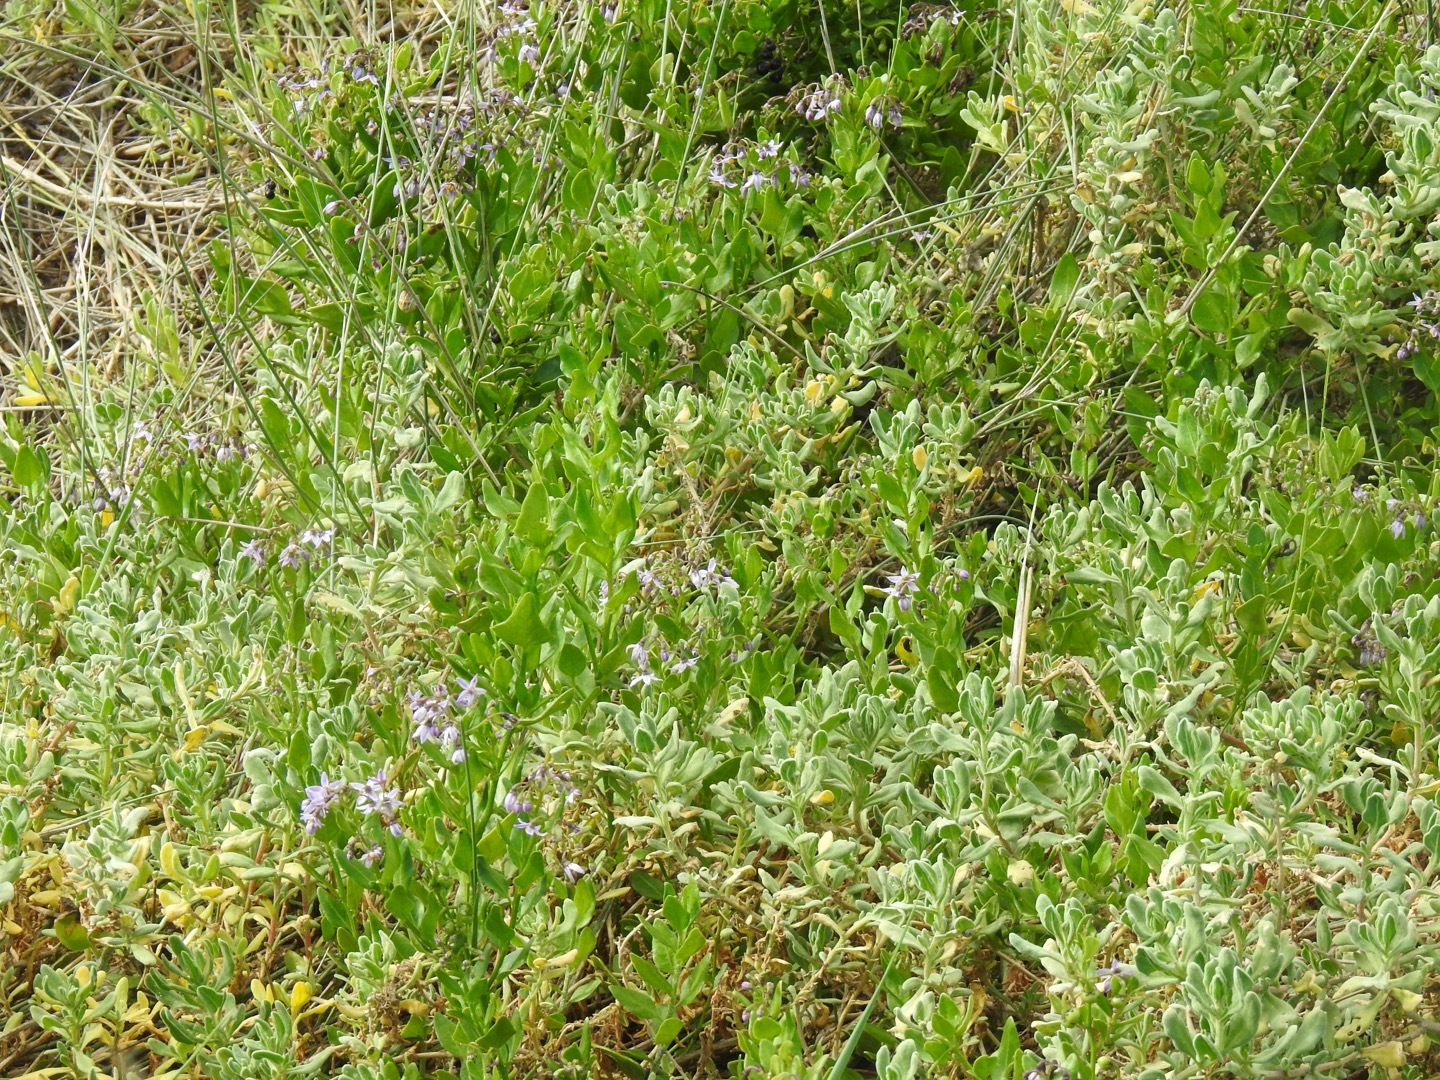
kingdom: Plantae
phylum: Tracheophyta
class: Magnoliopsida
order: Solanales
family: Solanaceae
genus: Solanum
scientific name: Solanum africanum
